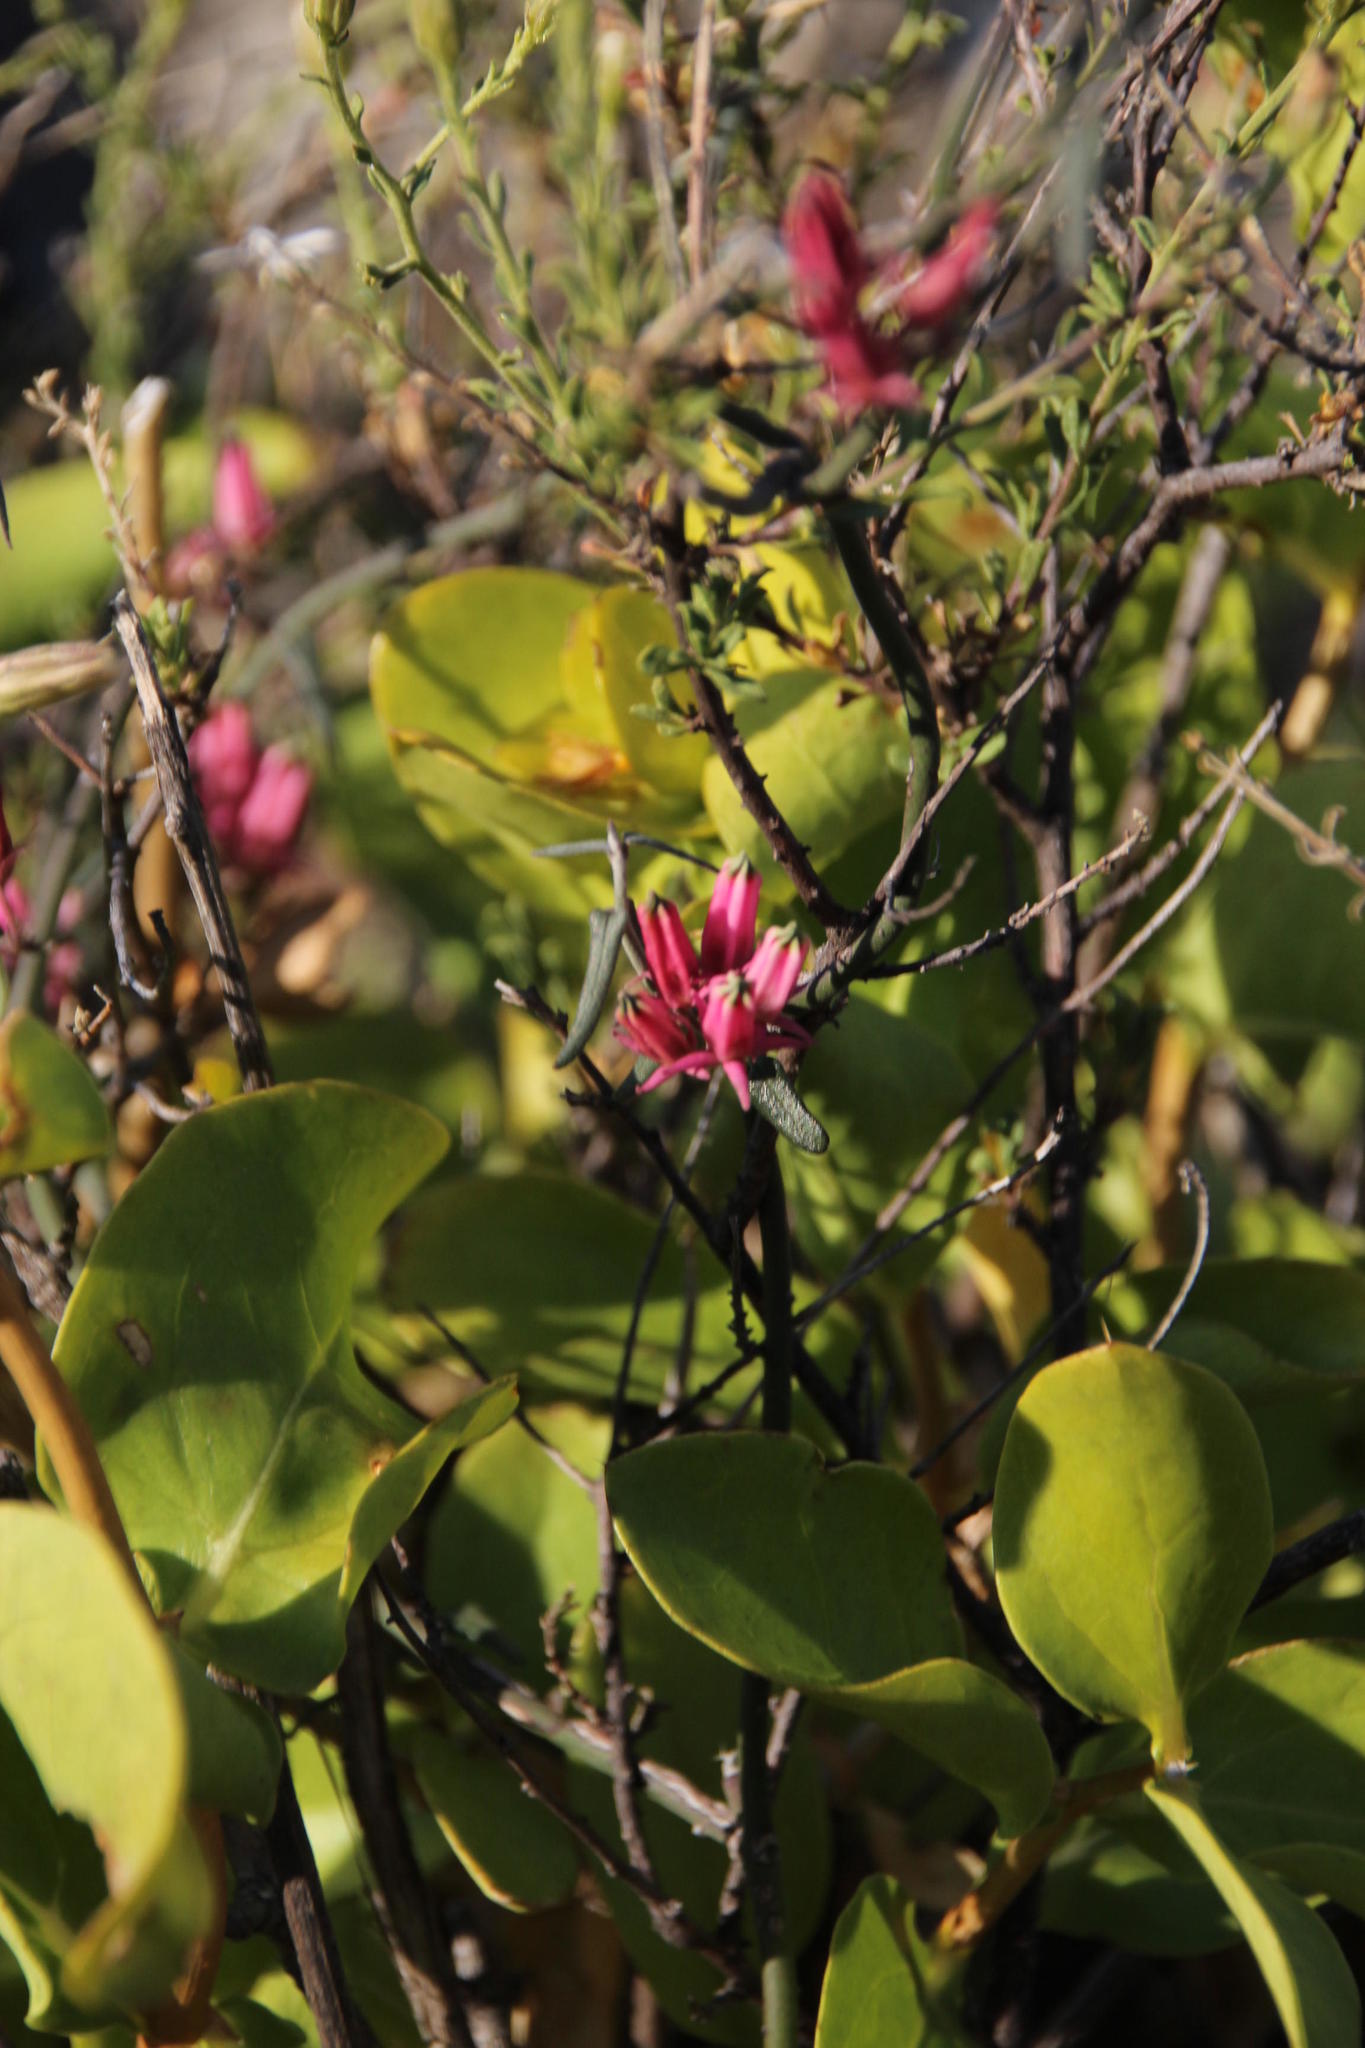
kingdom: Plantae
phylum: Tracheophyta
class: Magnoliopsida
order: Gentianales
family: Apocynaceae
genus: Microloma
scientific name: Microloma sagittatum
